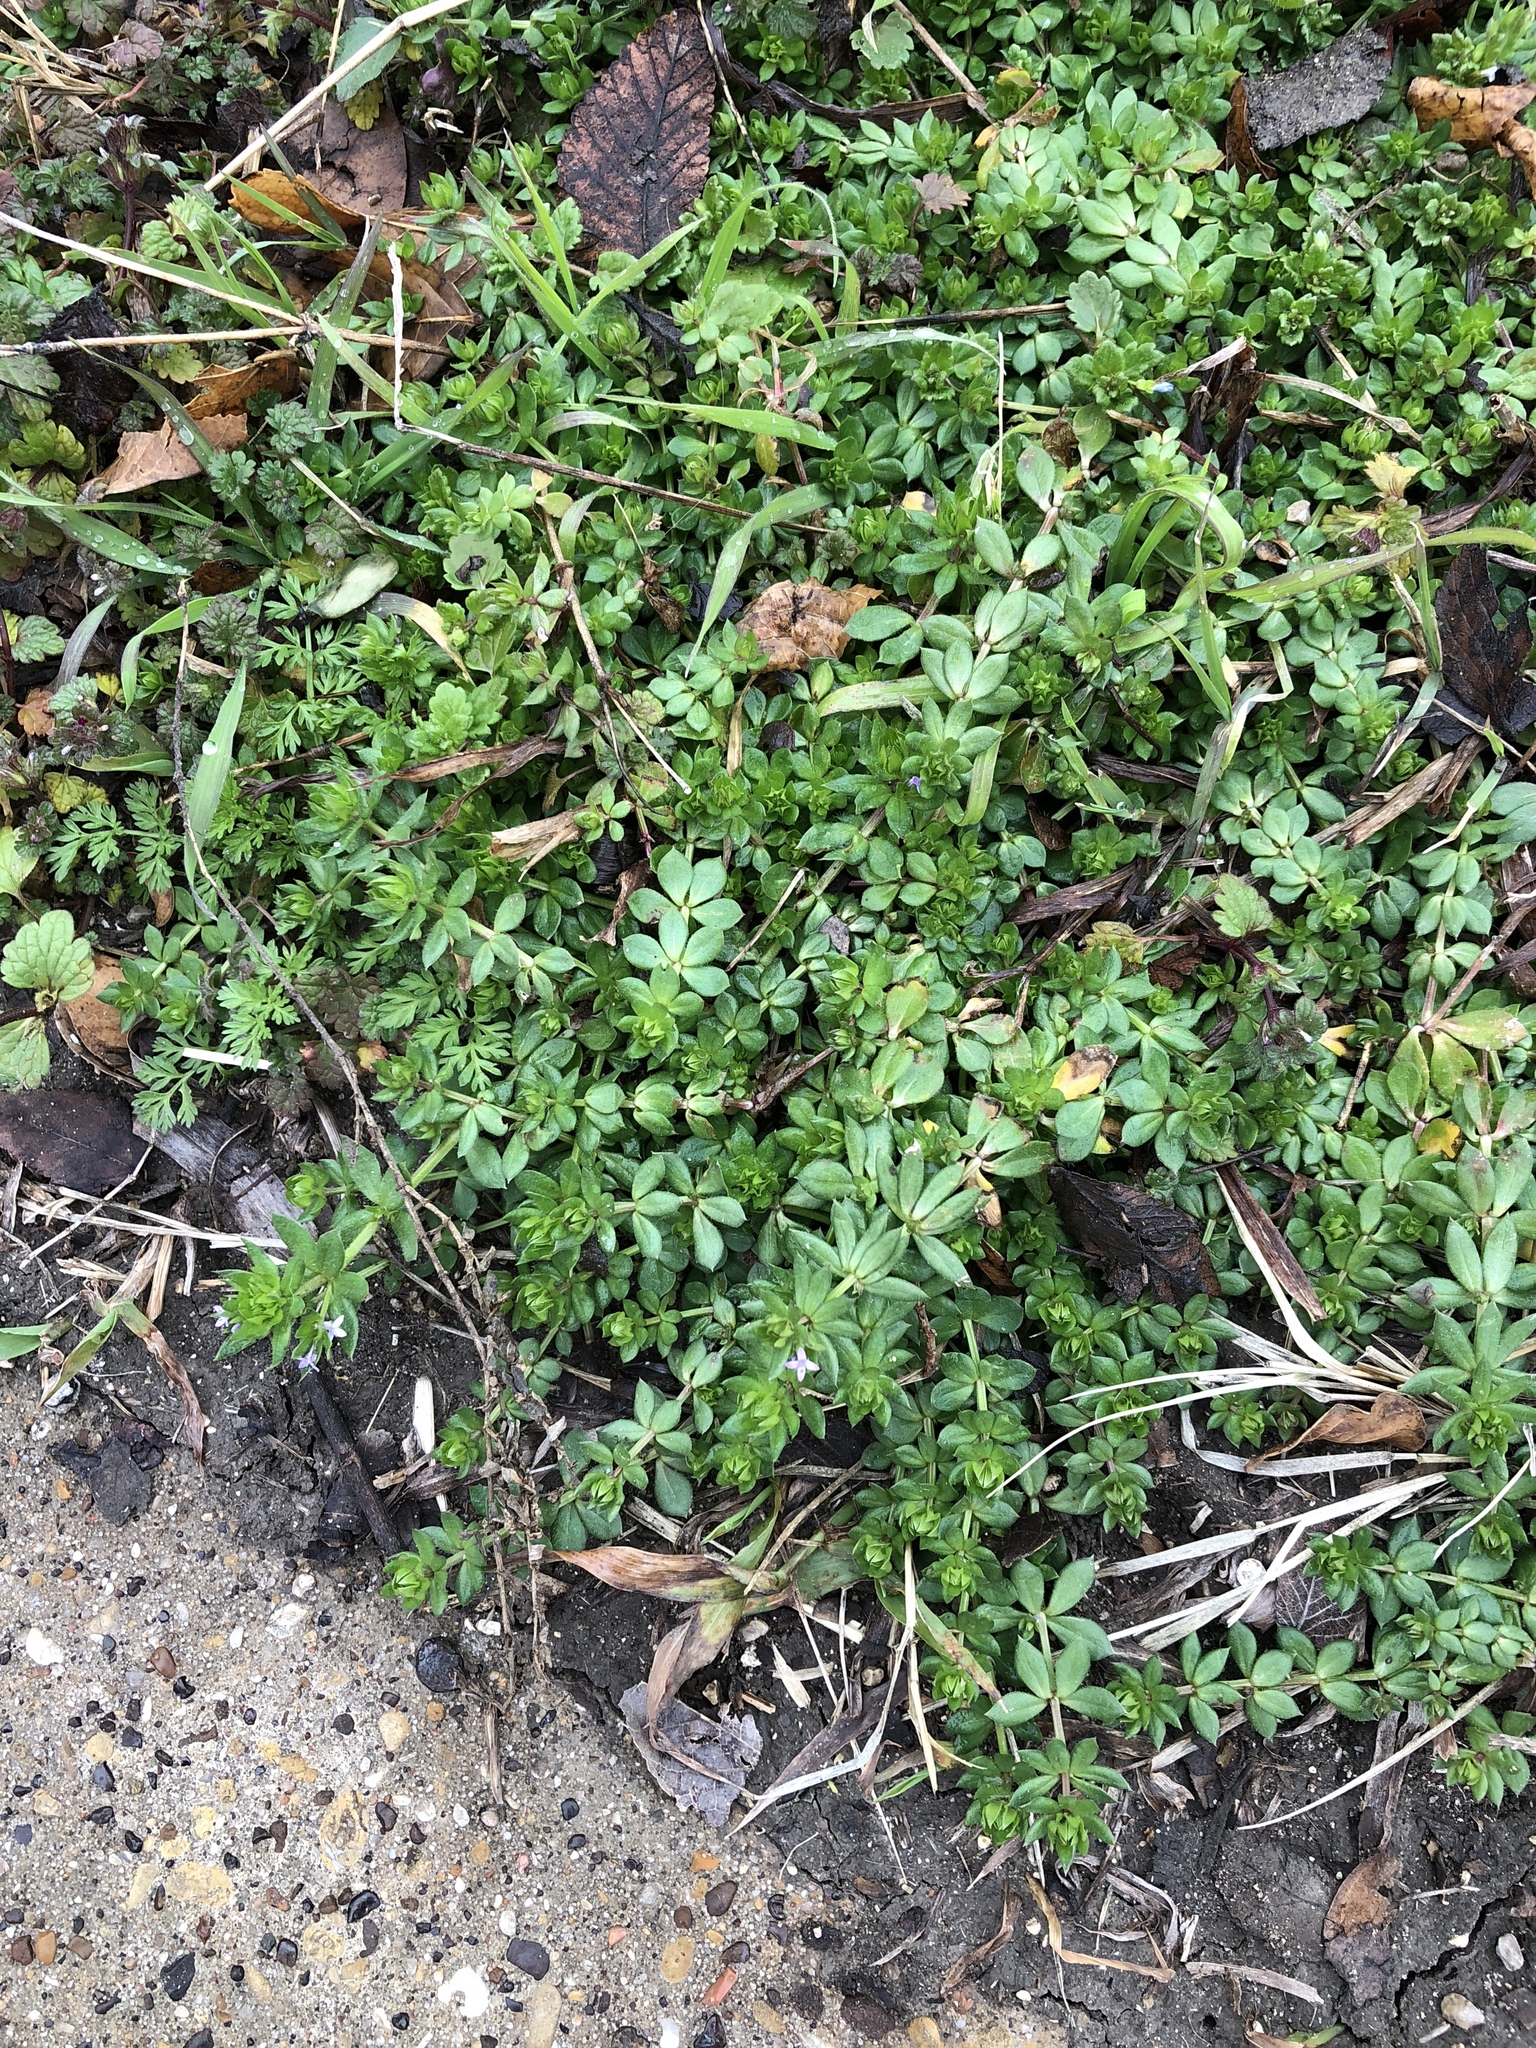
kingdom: Plantae
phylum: Tracheophyta
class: Magnoliopsida
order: Gentianales
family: Rubiaceae
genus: Sherardia
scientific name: Sherardia arvensis
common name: Field madder
